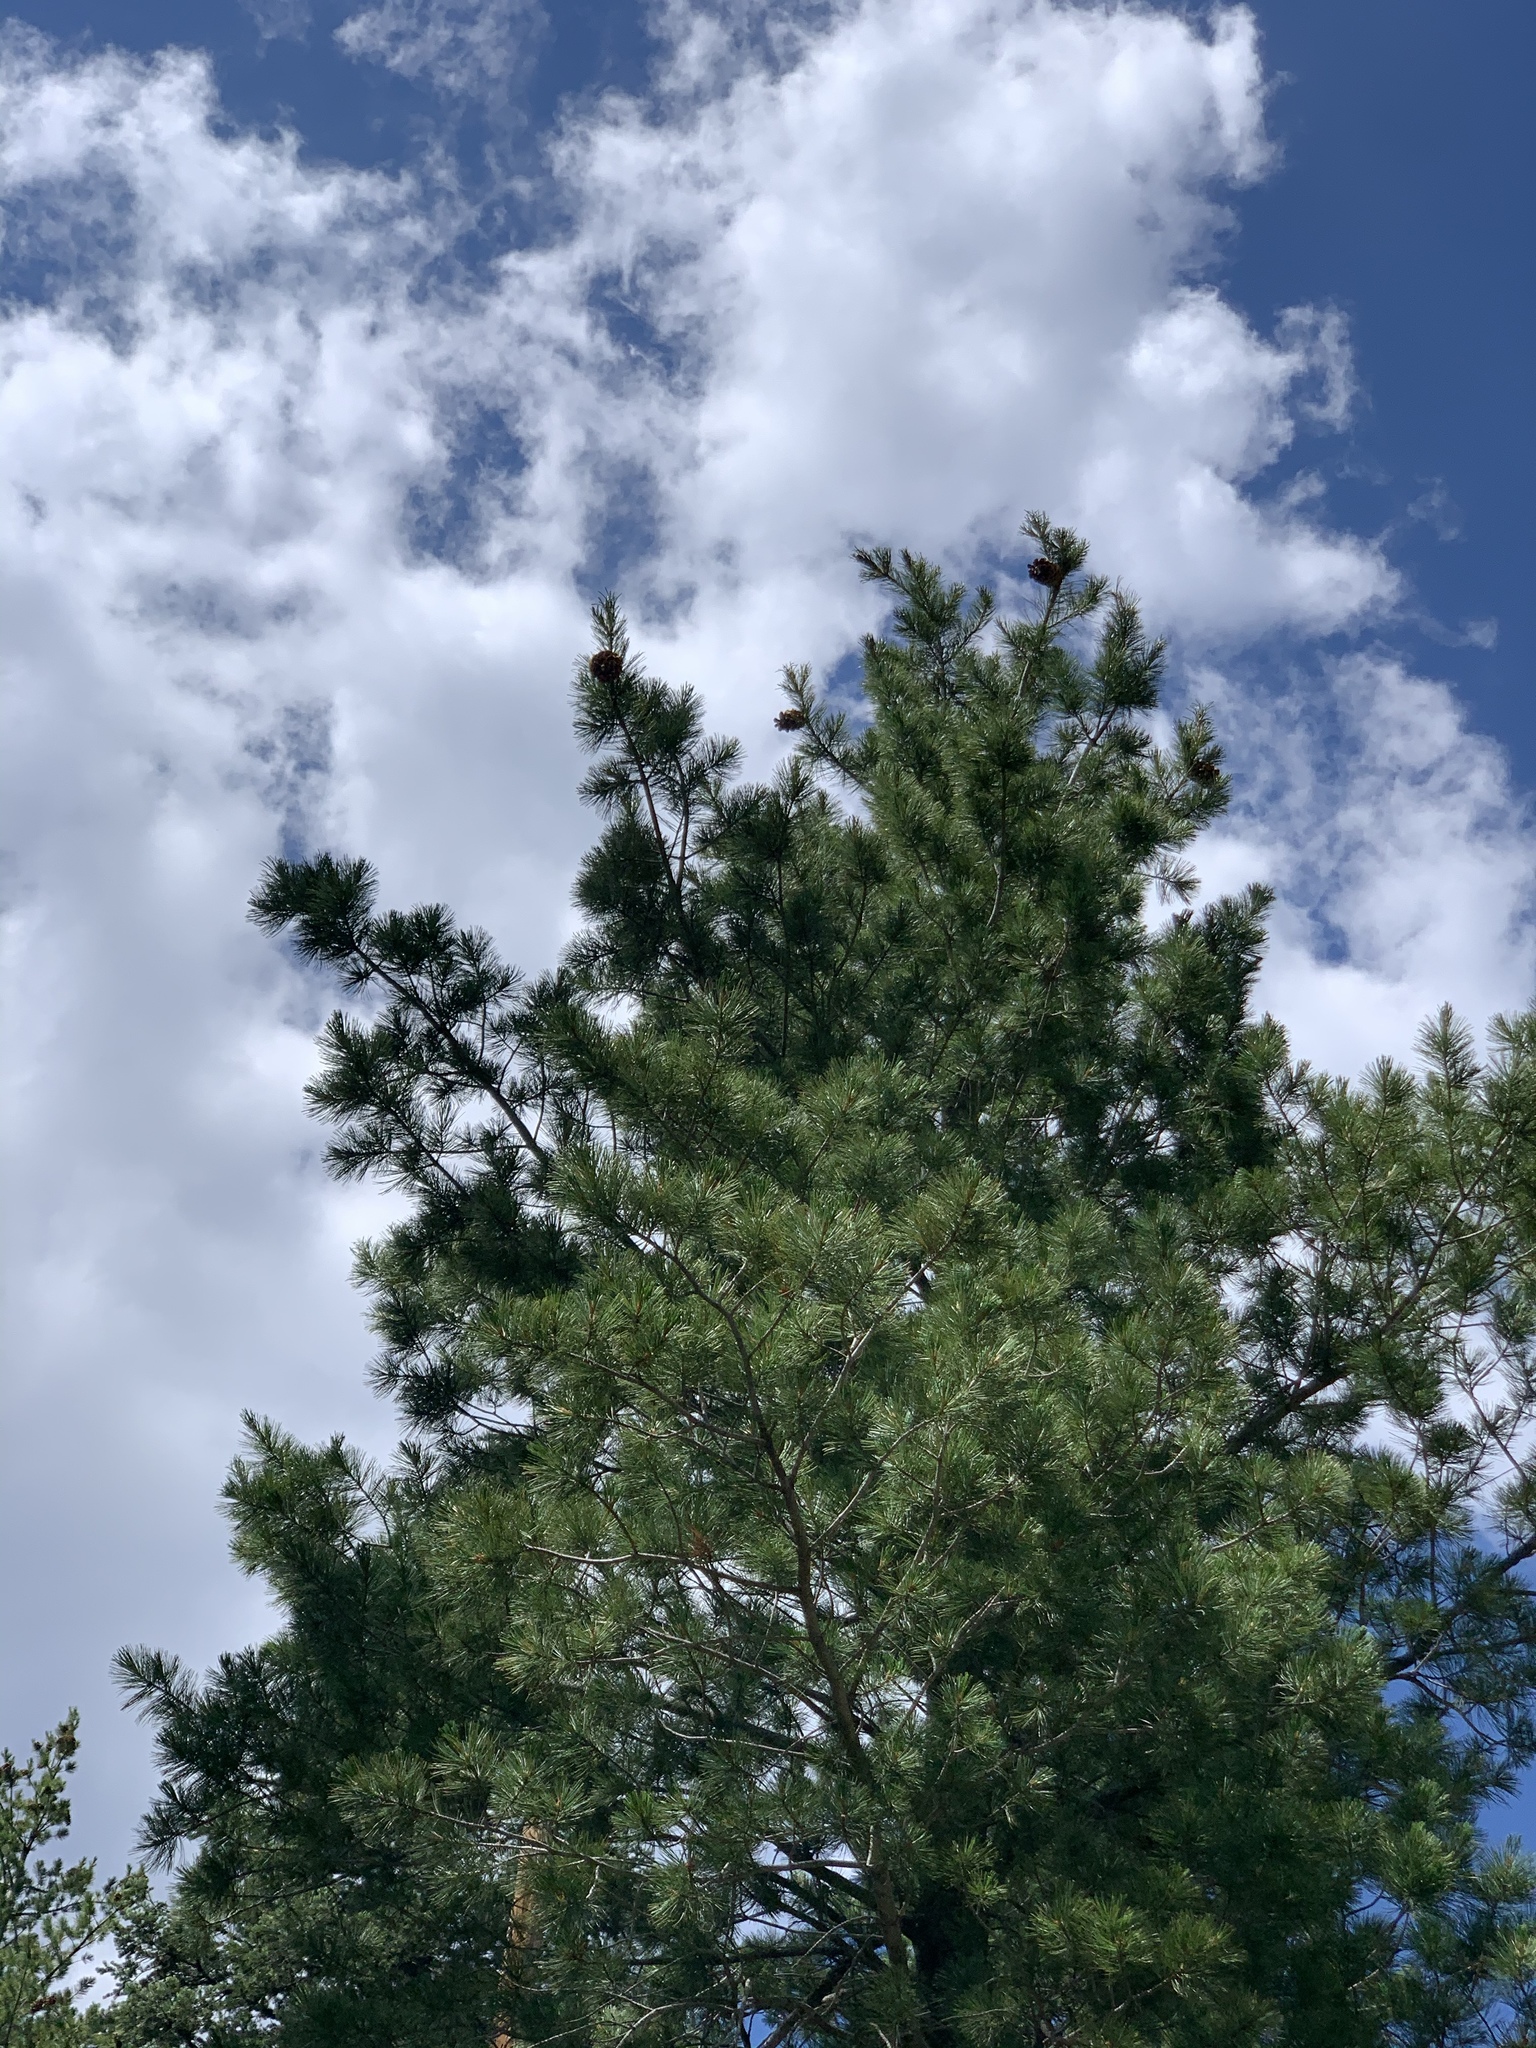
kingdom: Plantae
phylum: Tracheophyta
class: Pinopsida
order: Pinales
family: Pinaceae
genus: Pinus
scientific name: Pinus strobiformis
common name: Southwestern white pine
